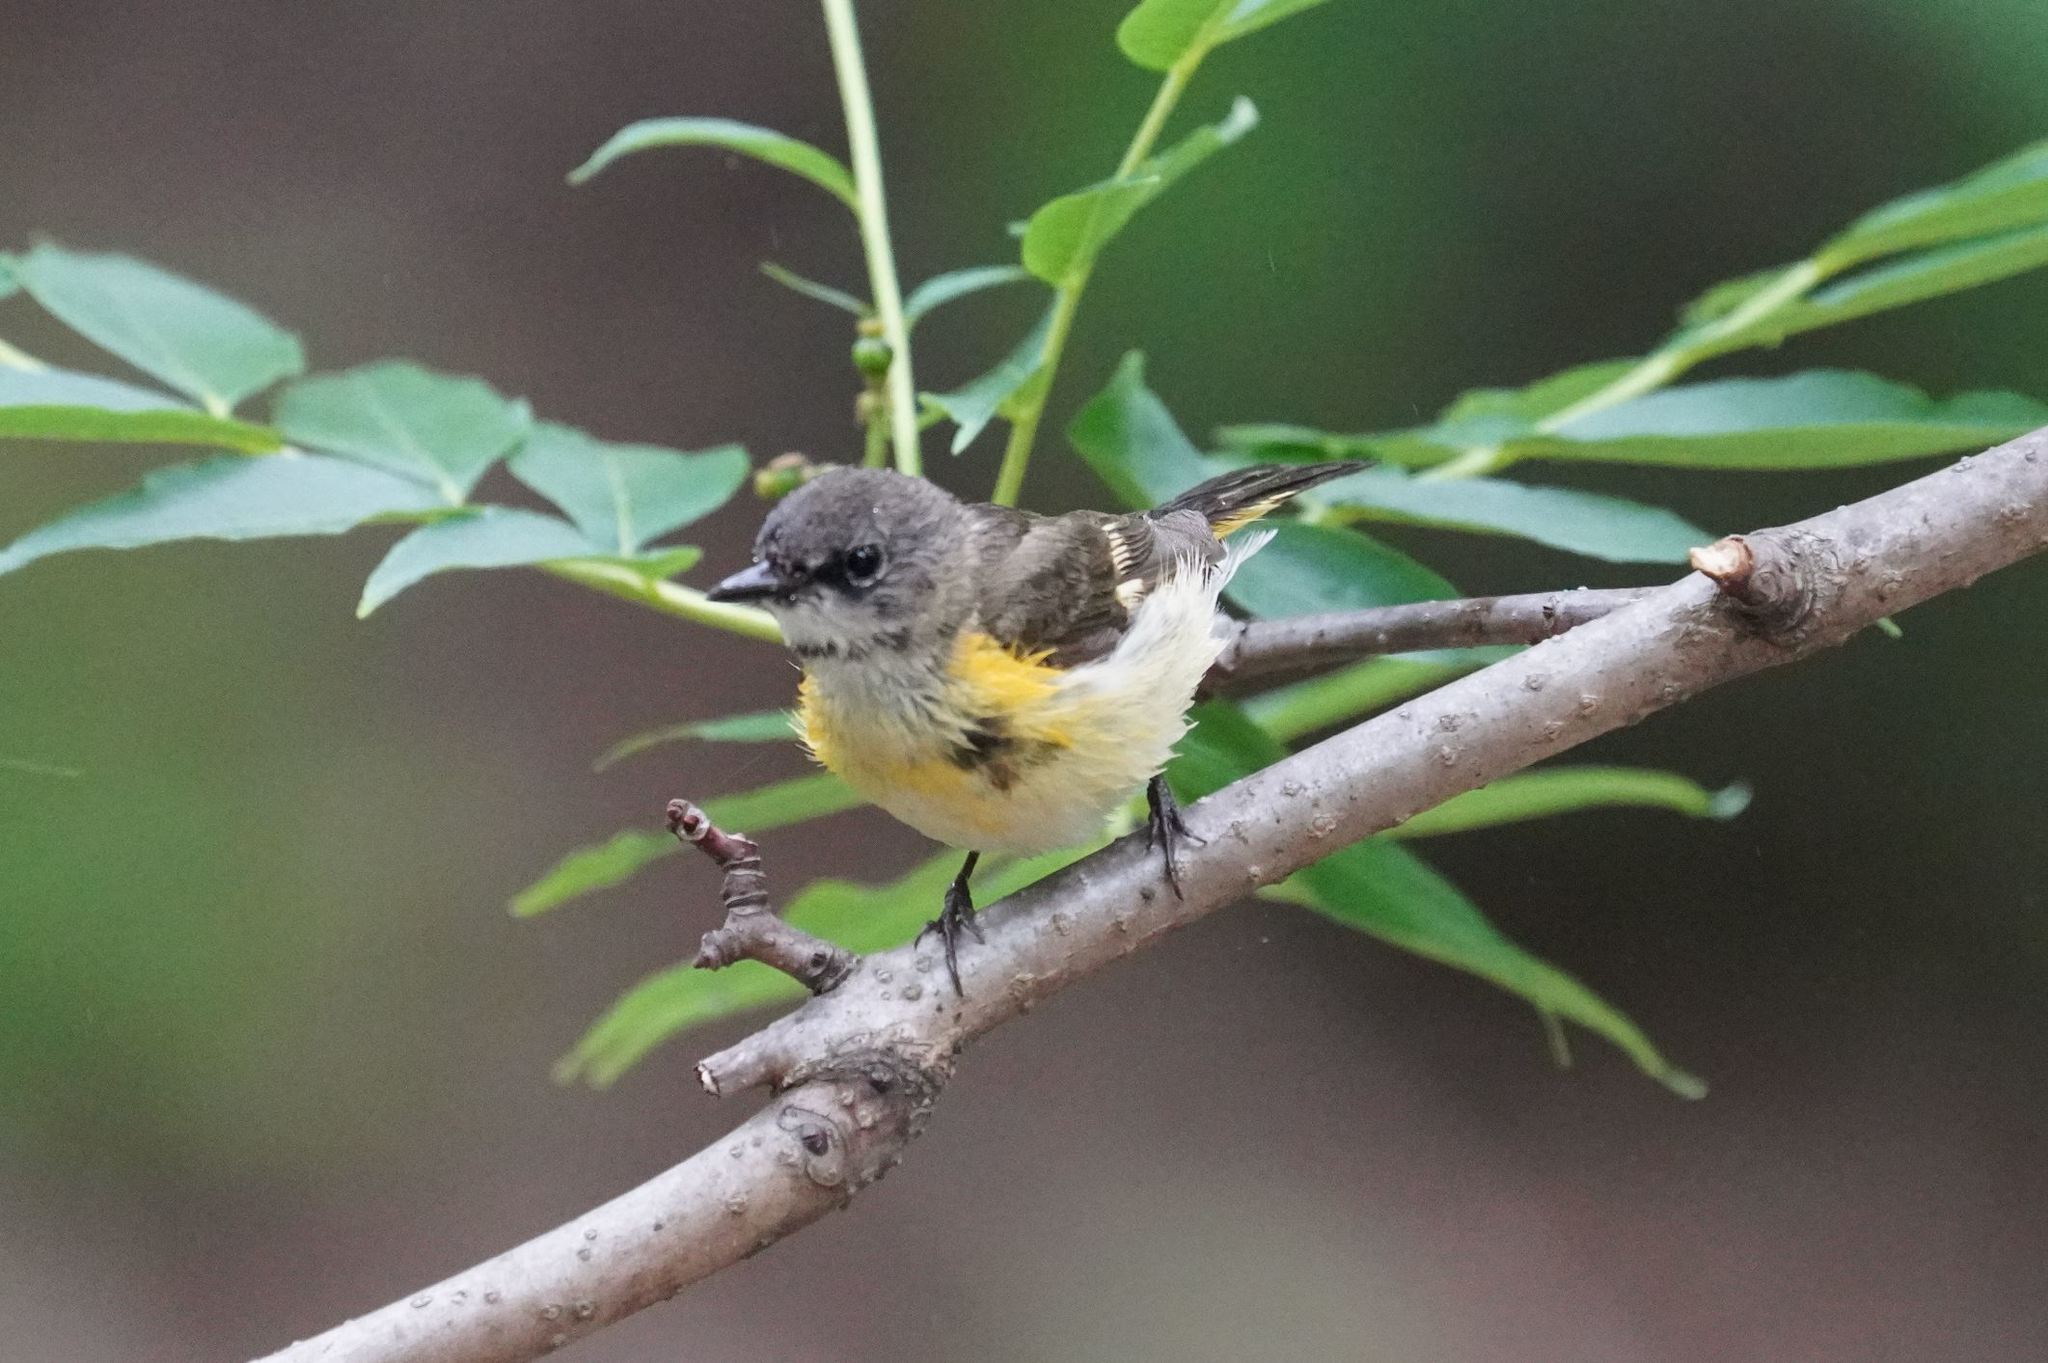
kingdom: Animalia
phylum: Chordata
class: Aves
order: Passeriformes
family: Parulidae
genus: Setophaga
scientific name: Setophaga ruticilla
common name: American redstart
